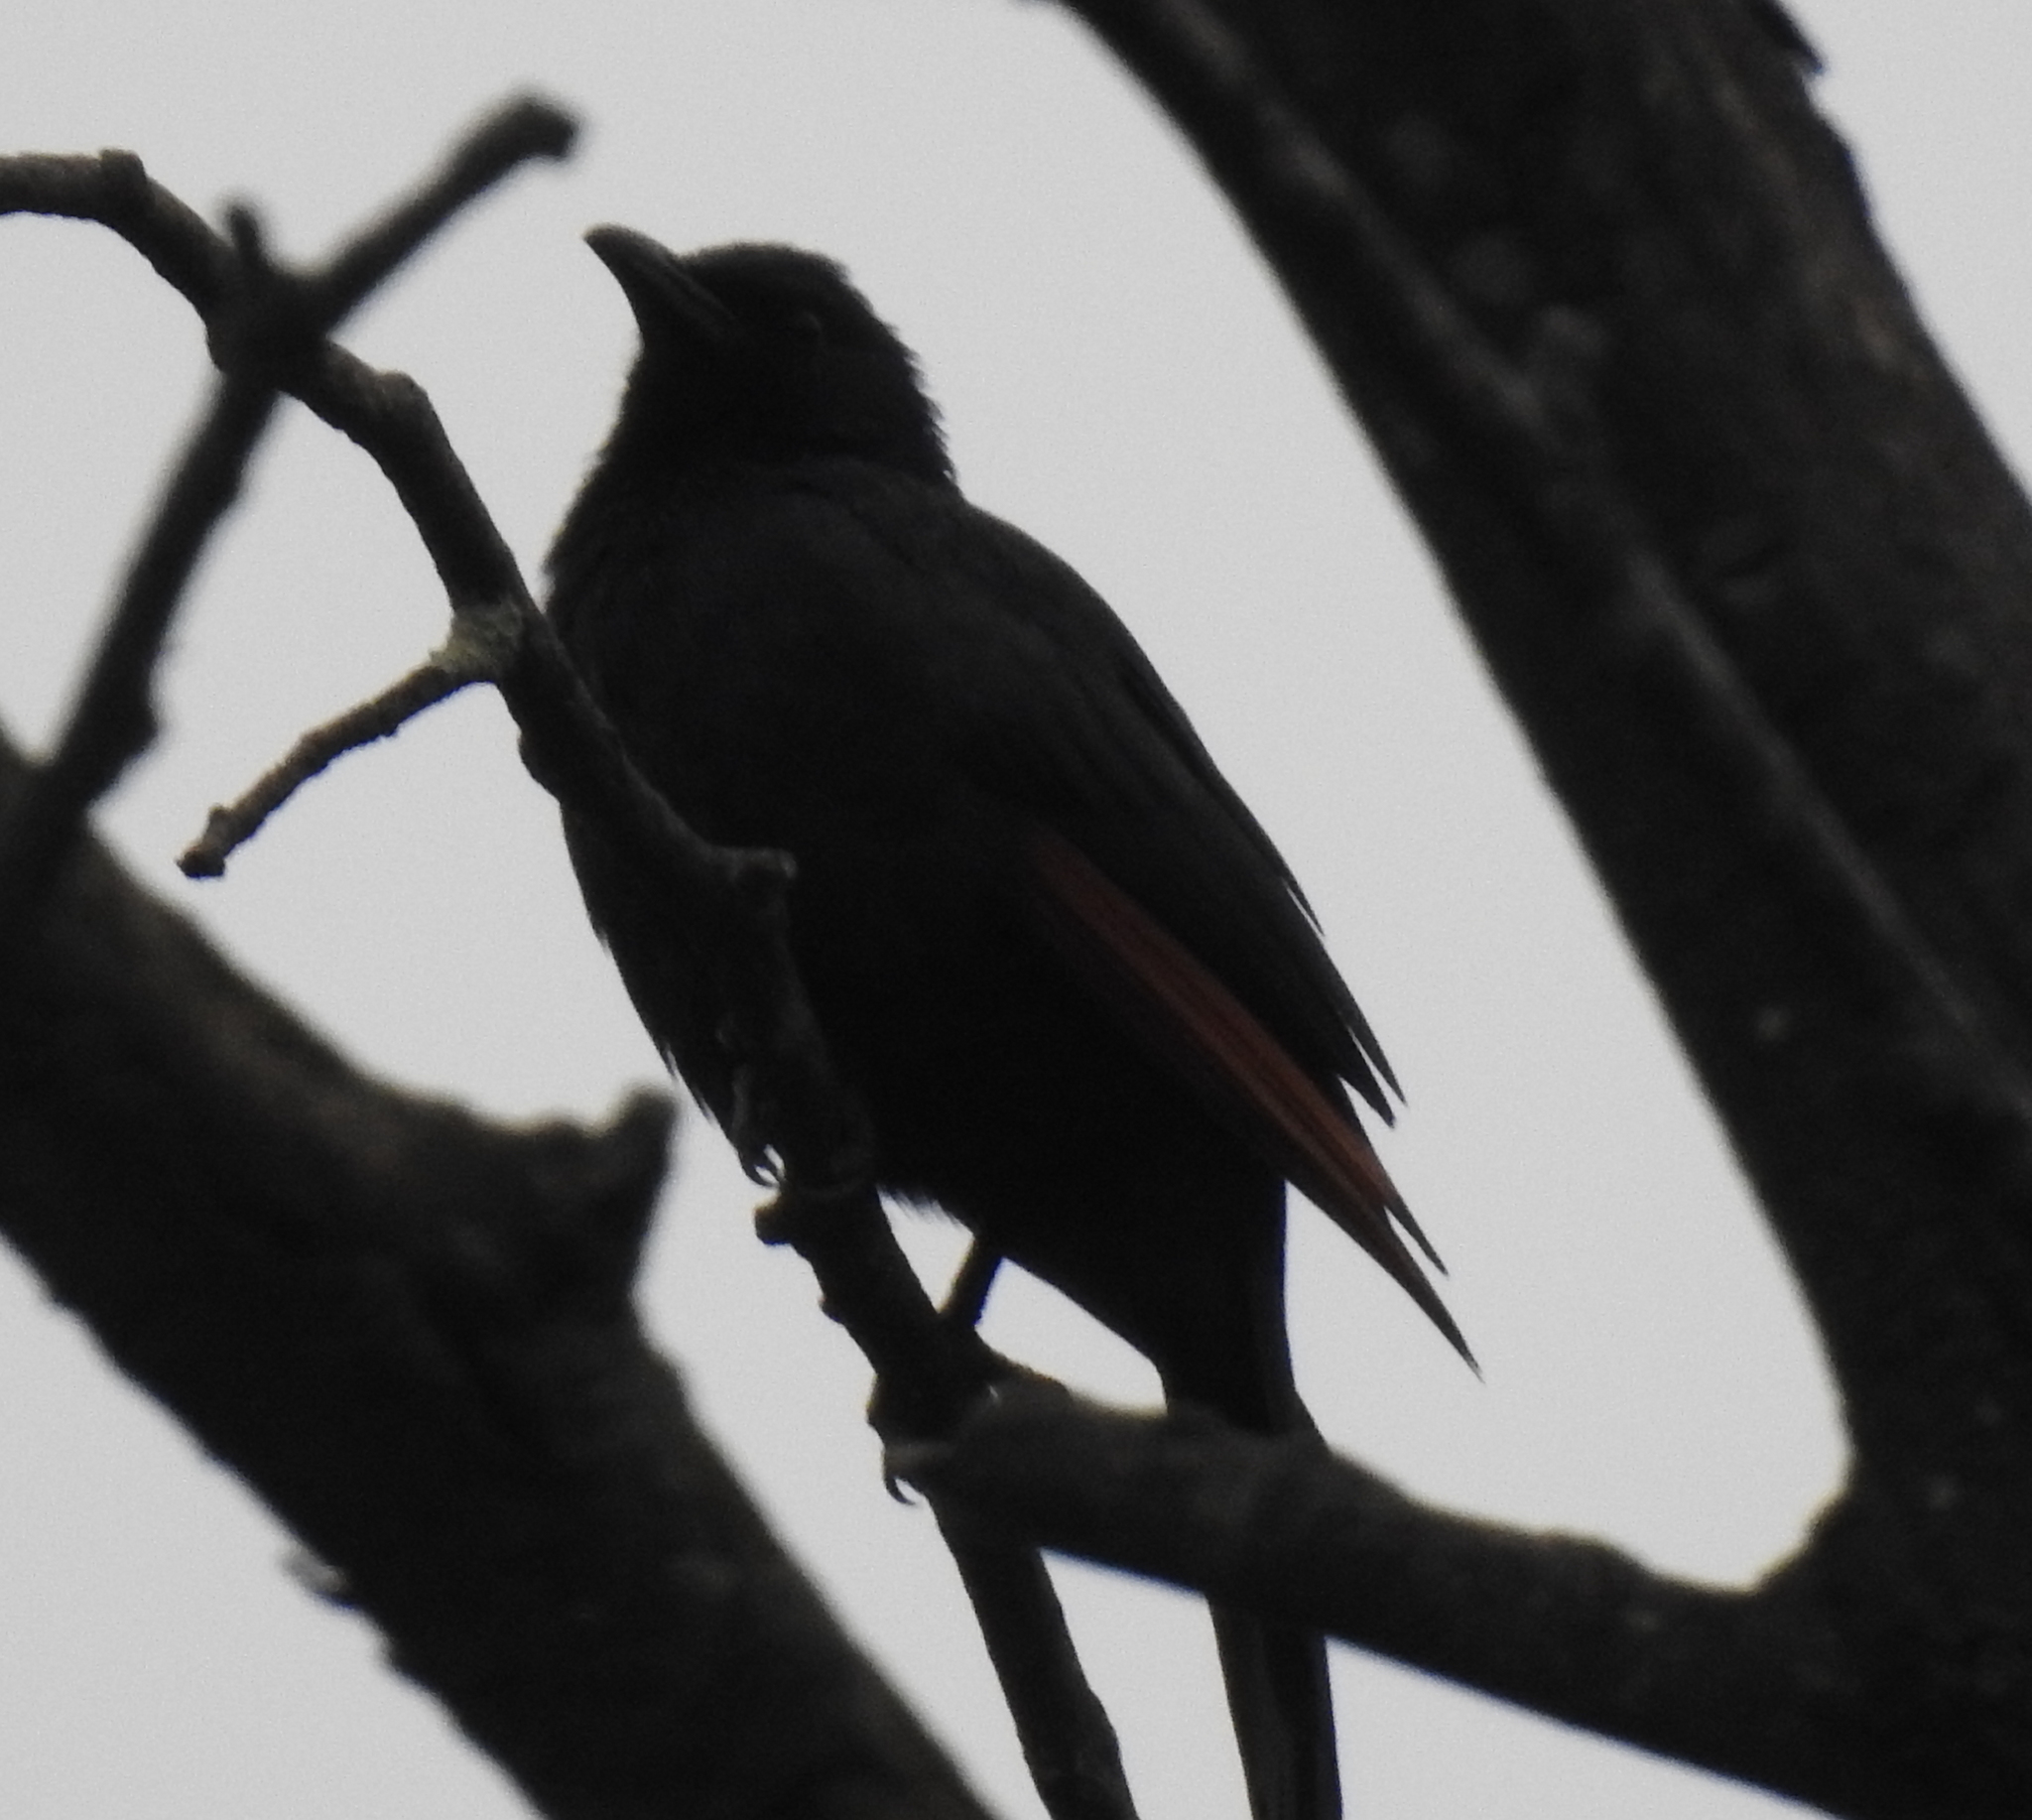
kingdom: Animalia
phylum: Chordata
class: Aves
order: Passeriformes
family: Sturnidae
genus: Onychognathus
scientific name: Onychognathus morio
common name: Red-winged starling
